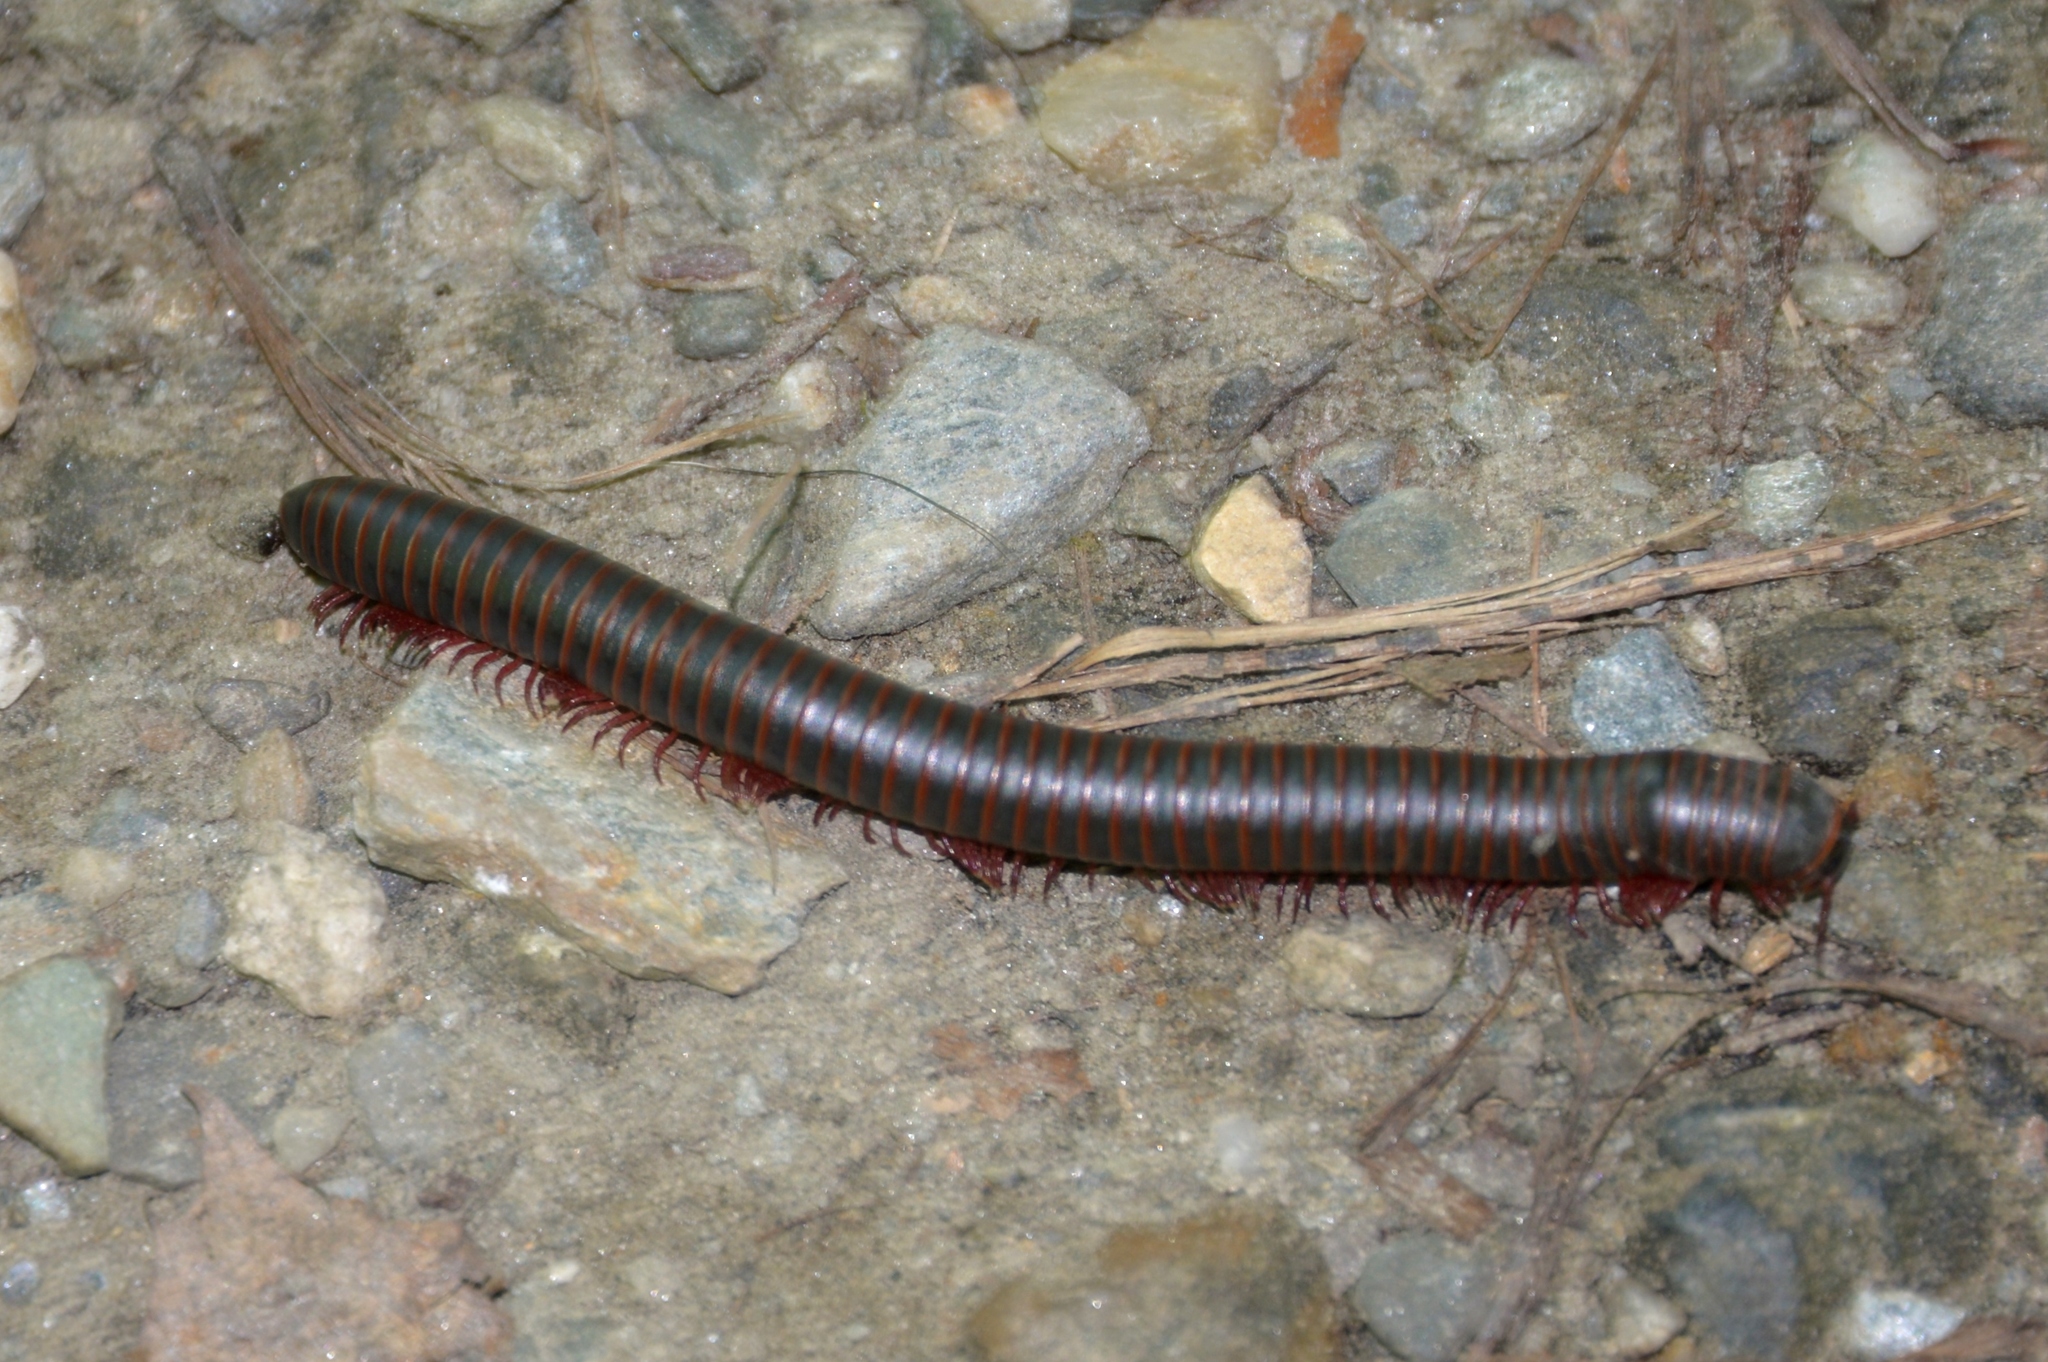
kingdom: Animalia
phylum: Arthropoda
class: Diplopoda
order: Spirobolida
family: Spirobolidae
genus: Narceus
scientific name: Narceus
